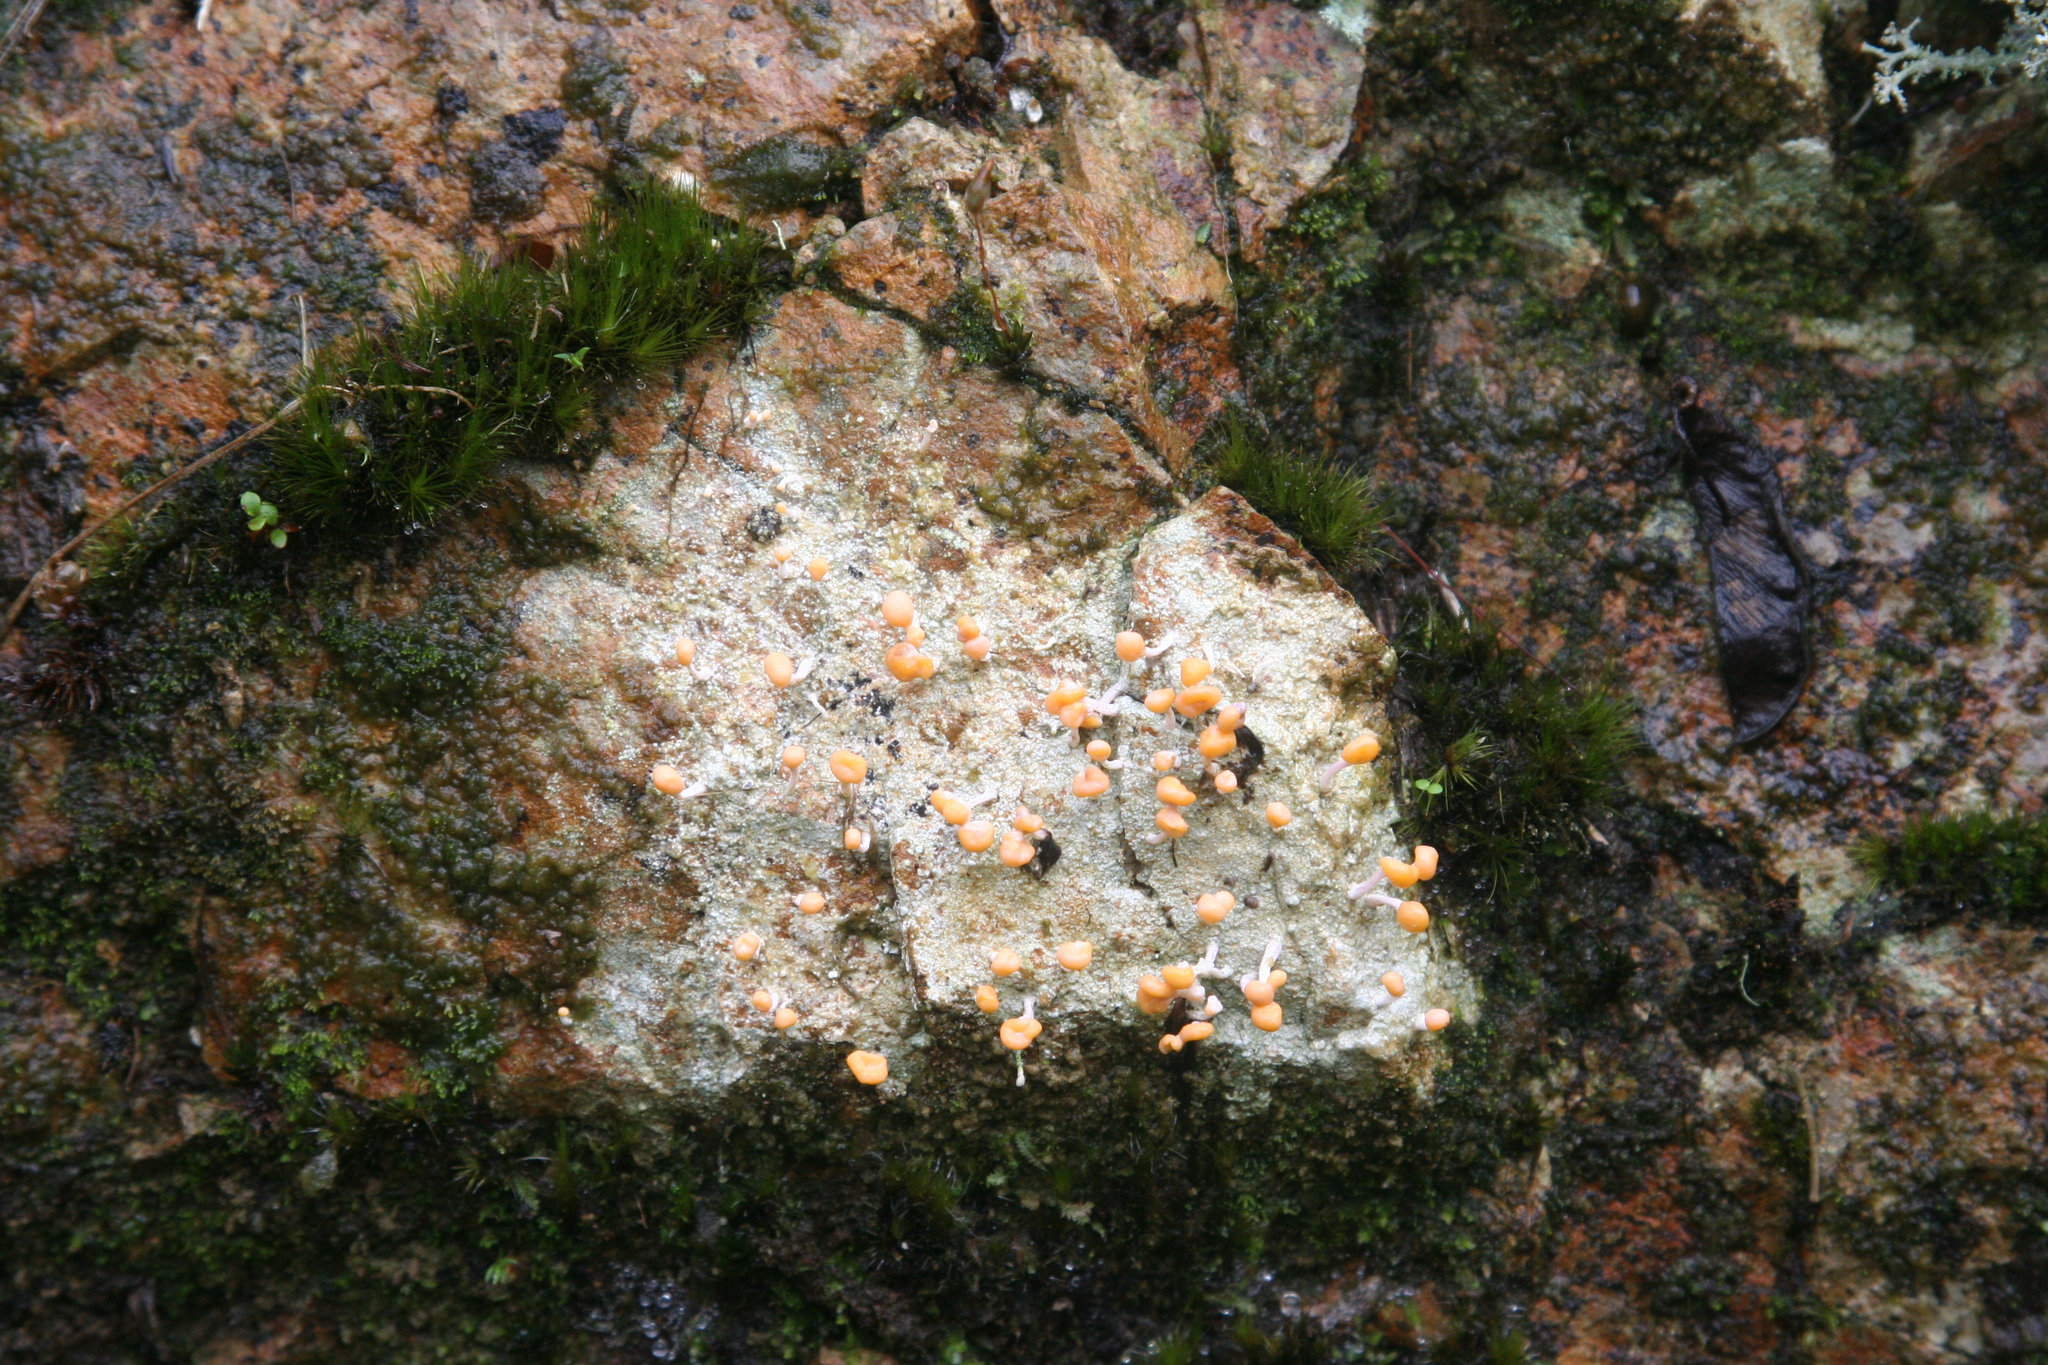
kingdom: Fungi
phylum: Ascomycota
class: Lecanoromycetes
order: Pertusariales
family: Icmadophilaceae
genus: Dibaeis
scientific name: Dibaeis arcuata
